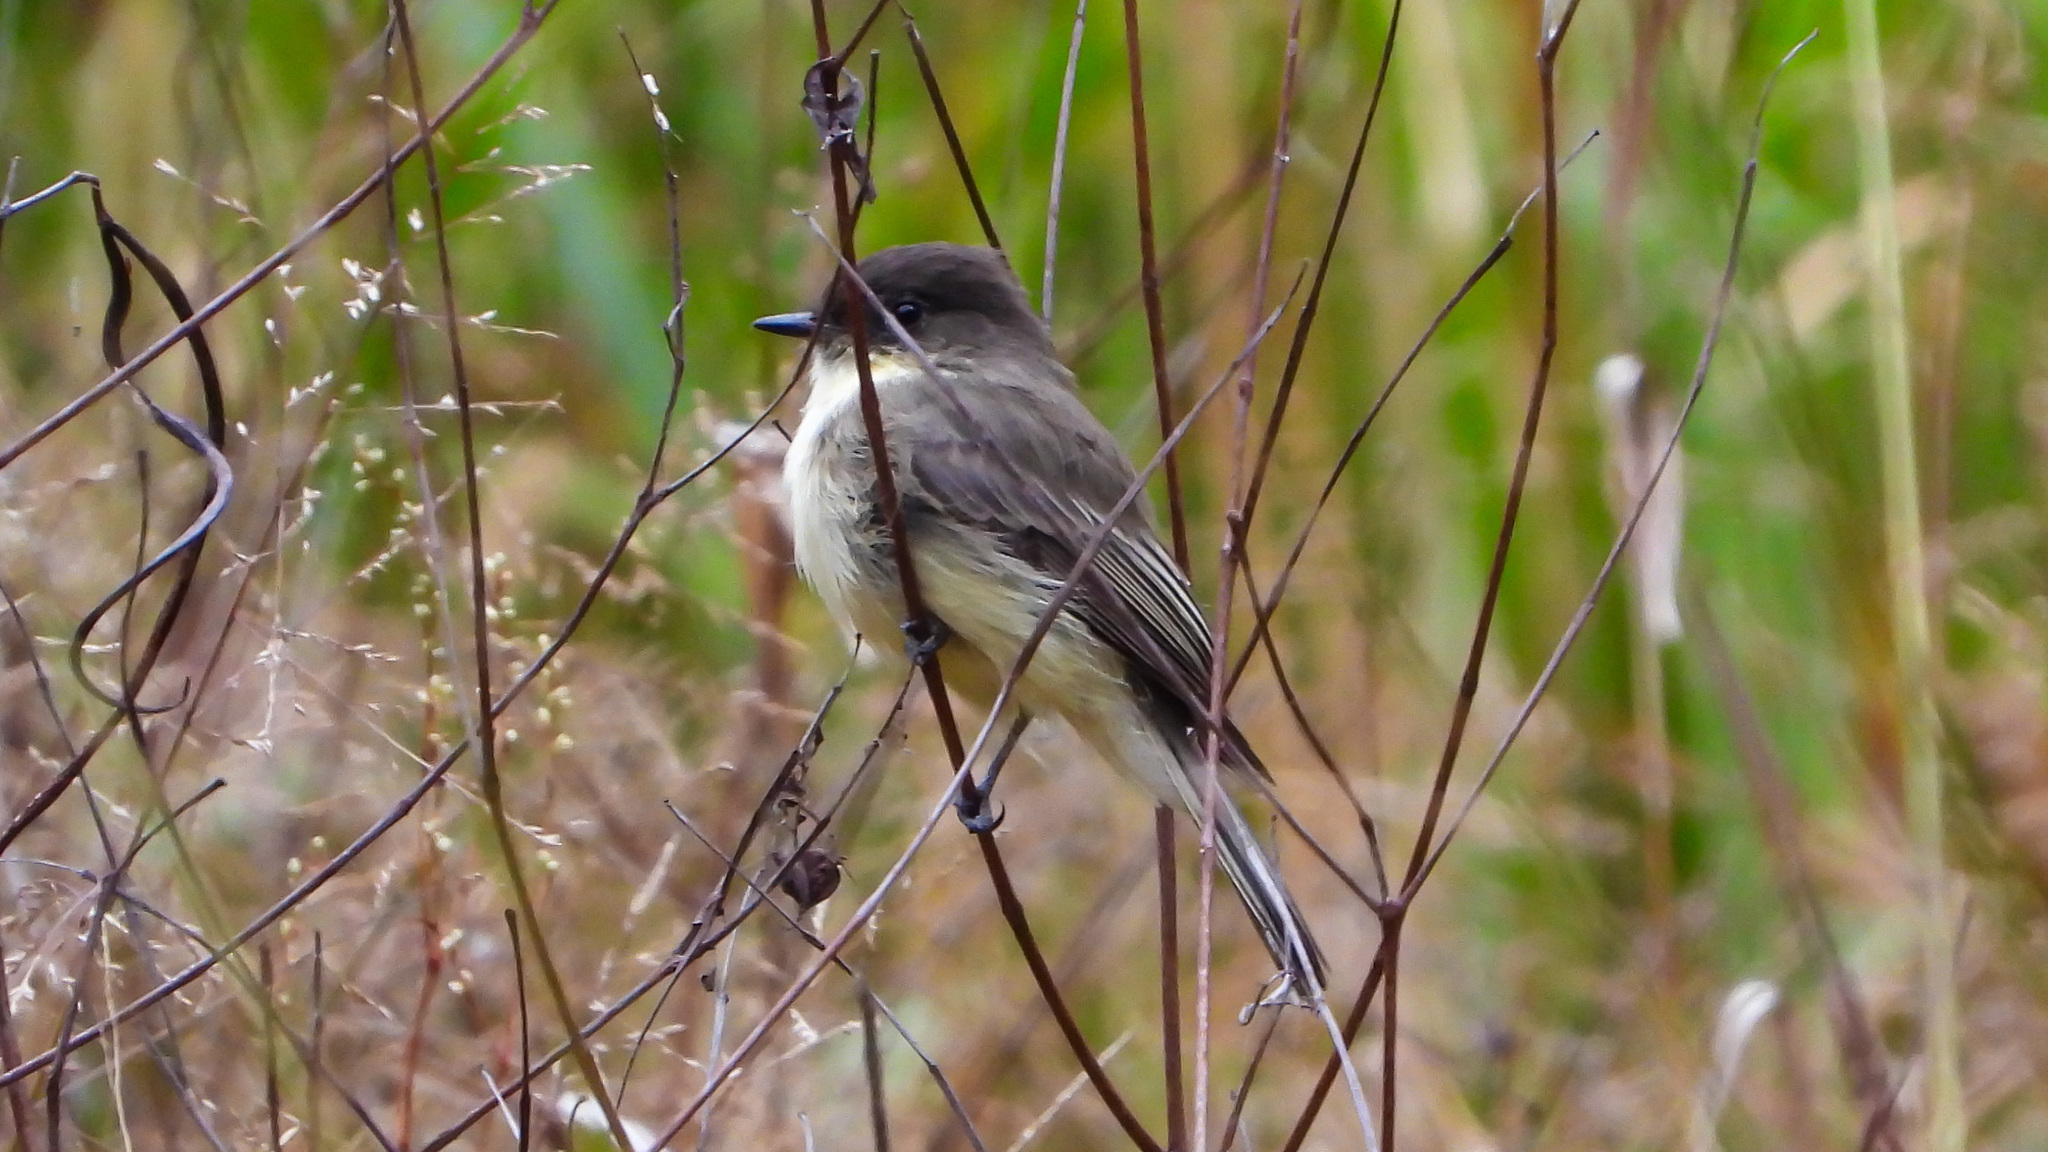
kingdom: Animalia
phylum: Chordata
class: Aves
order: Passeriformes
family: Tyrannidae
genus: Sayornis
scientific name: Sayornis phoebe
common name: Eastern phoebe
